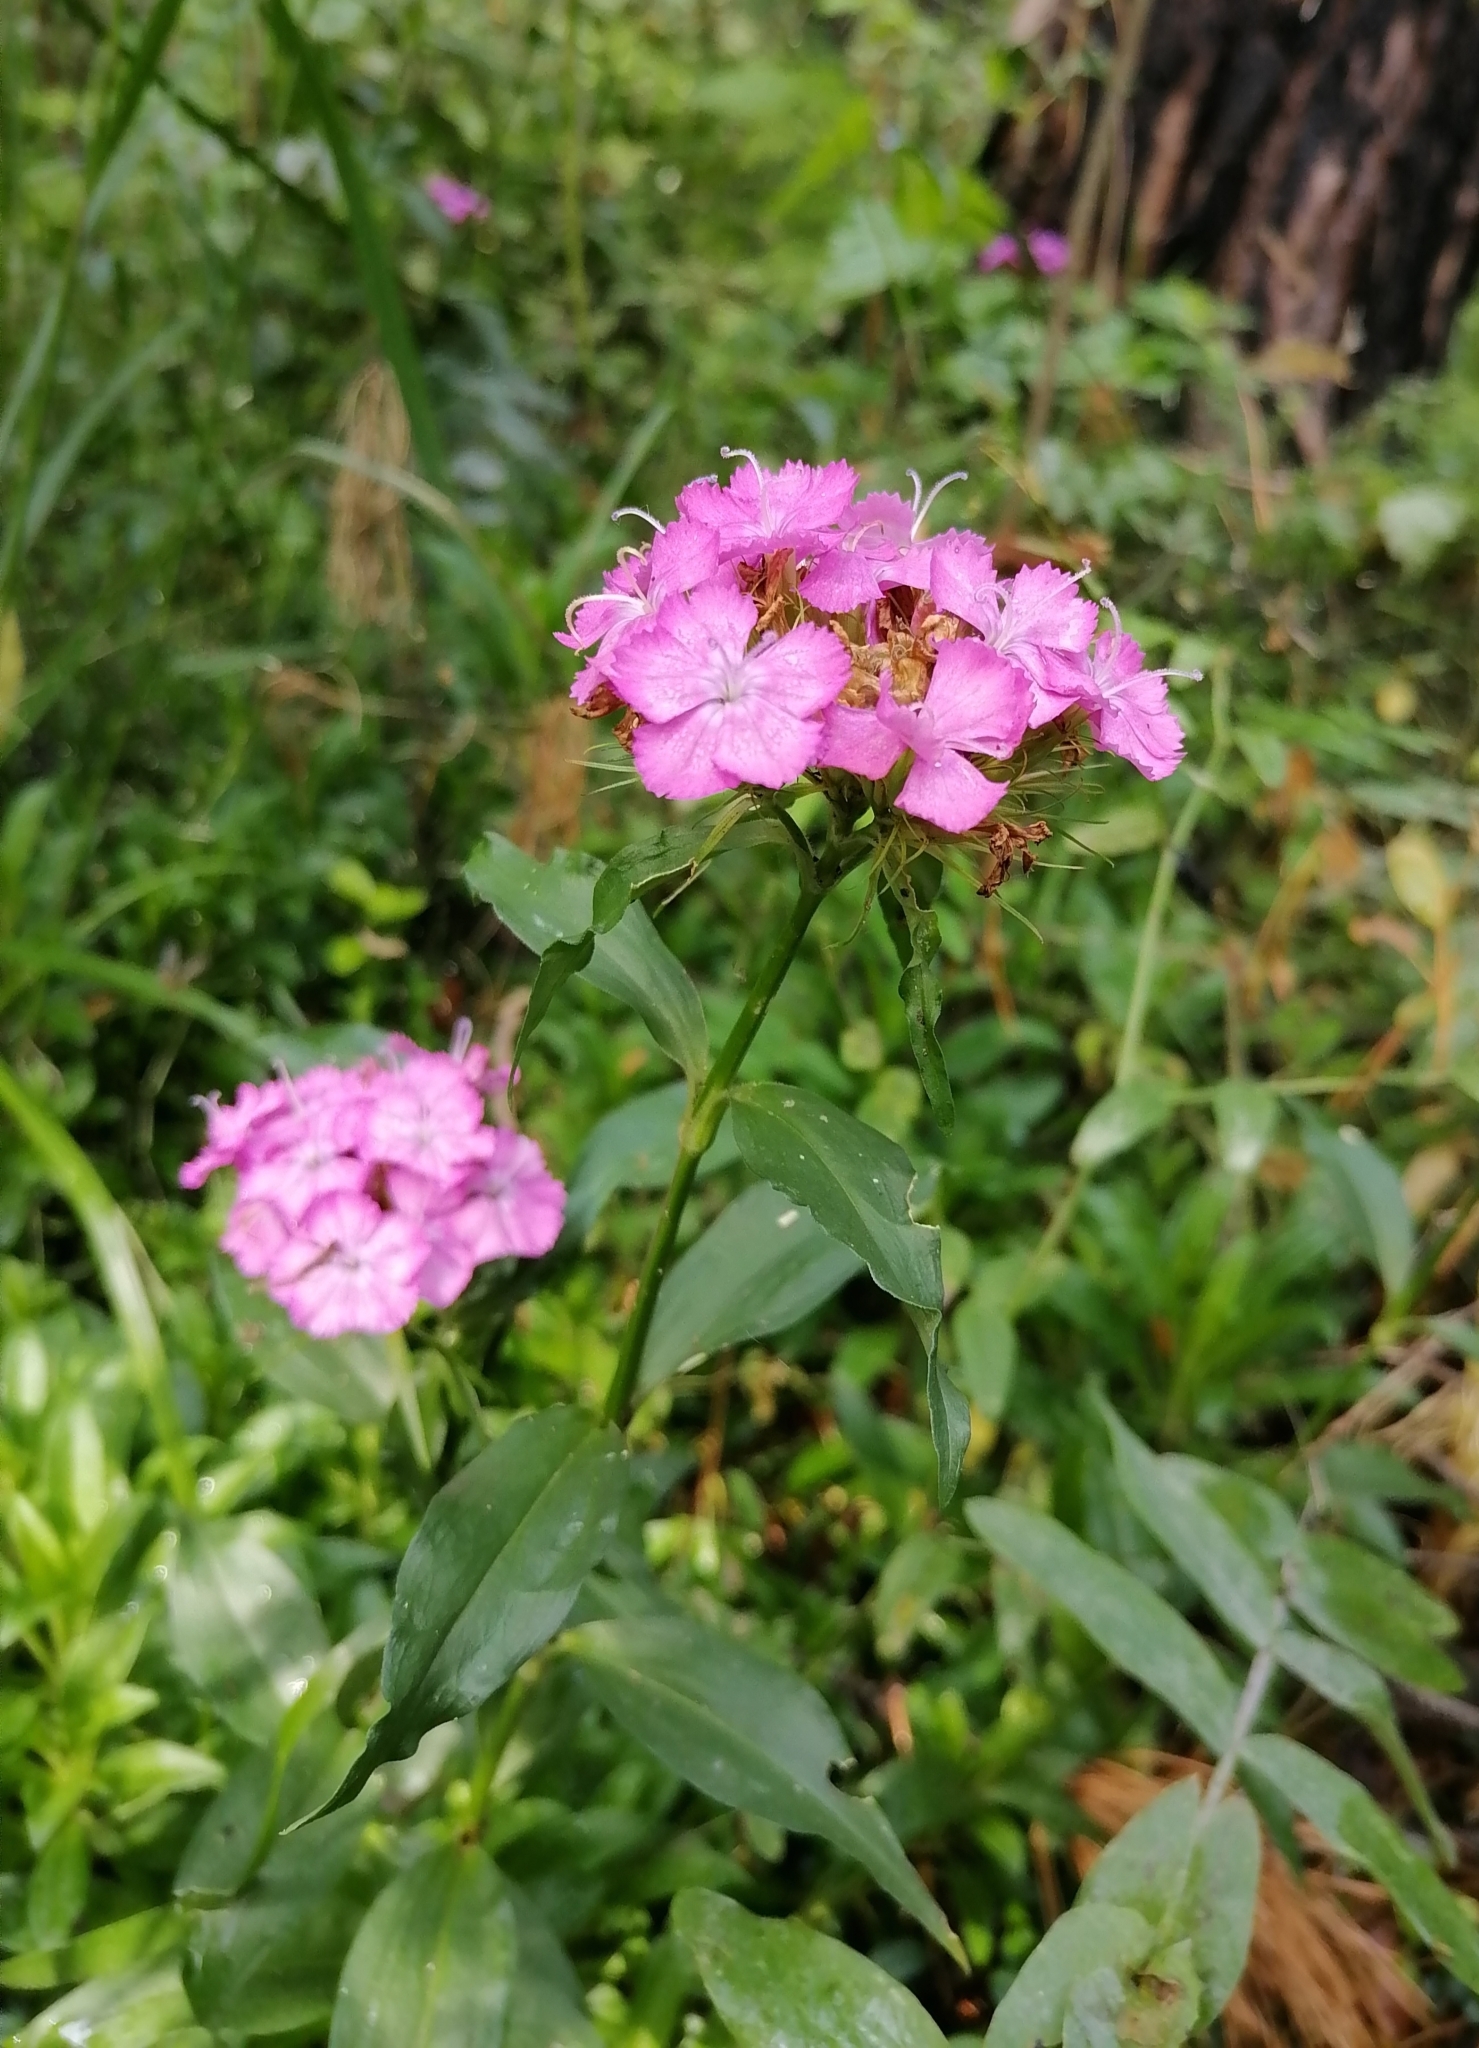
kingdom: Plantae
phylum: Tracheophyta
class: Magnoliopsida
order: Caryophyllales
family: Caryophyllaceae
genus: Dianthus
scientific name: Dianthus barbatus
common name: Sweet-william
